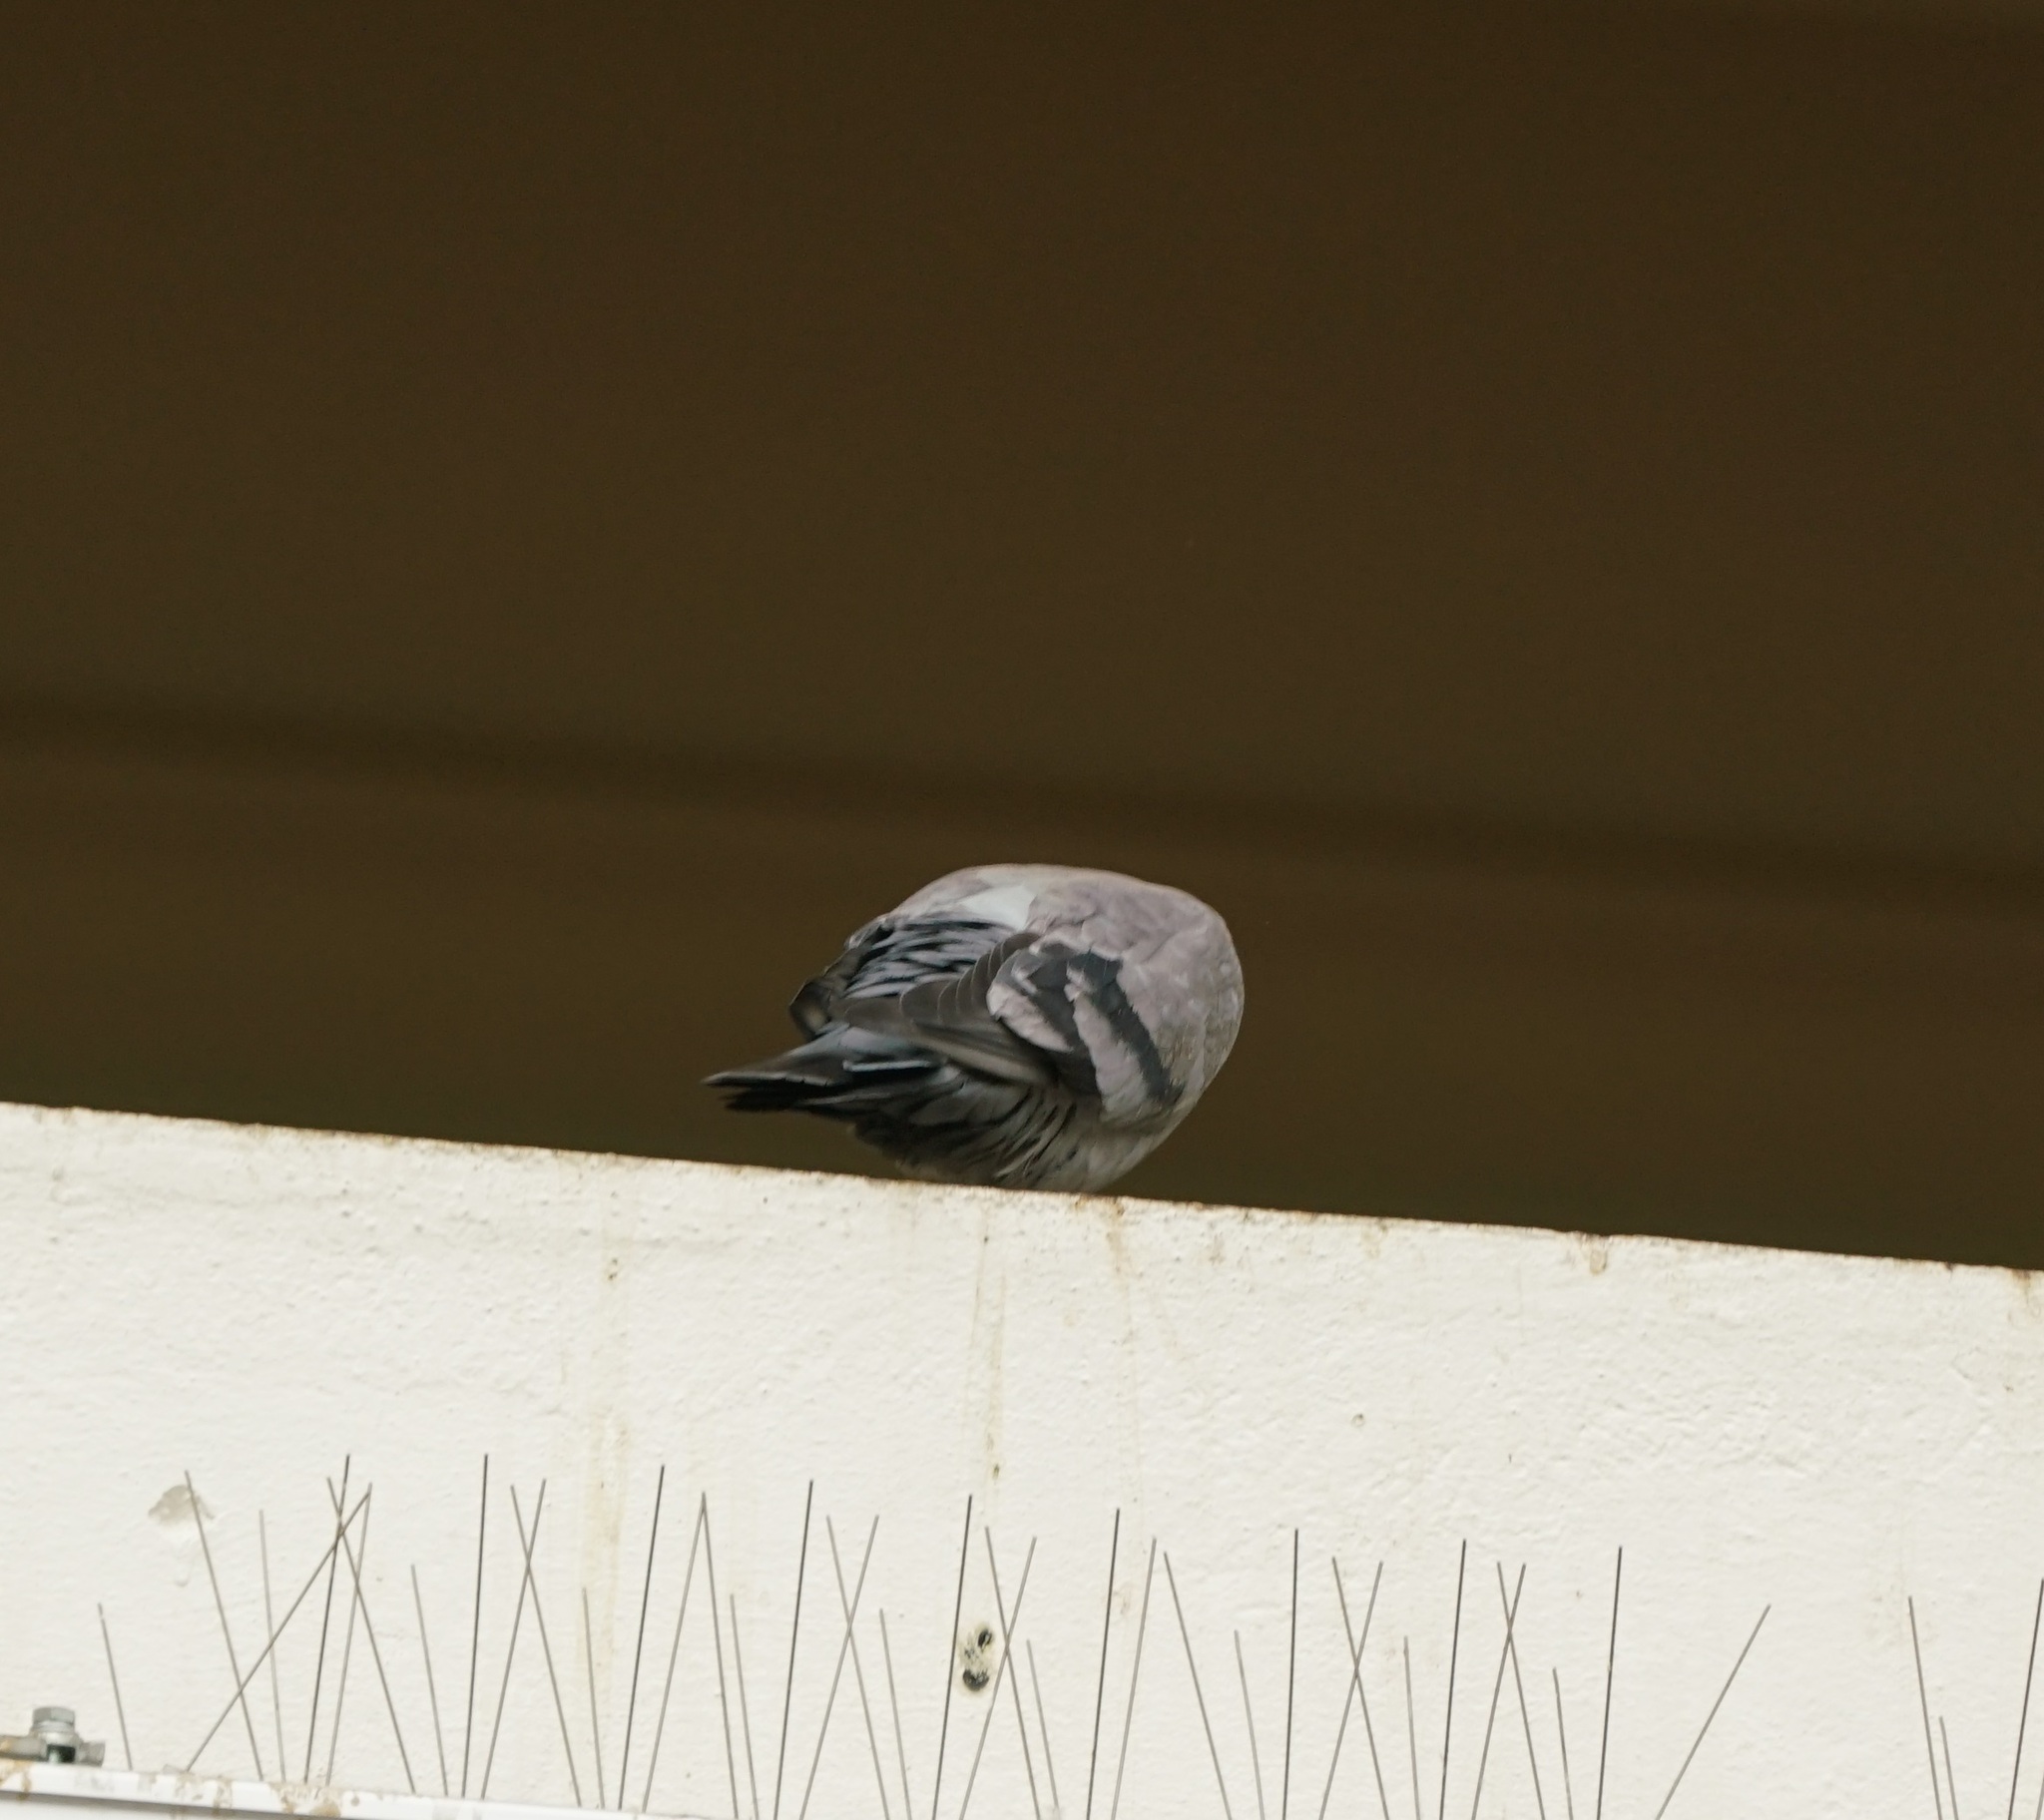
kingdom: Animalia
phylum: Chordata
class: Aves
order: Columbiformes
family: Columbidae
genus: Columba
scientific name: Columba livia
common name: Rock pigeon
